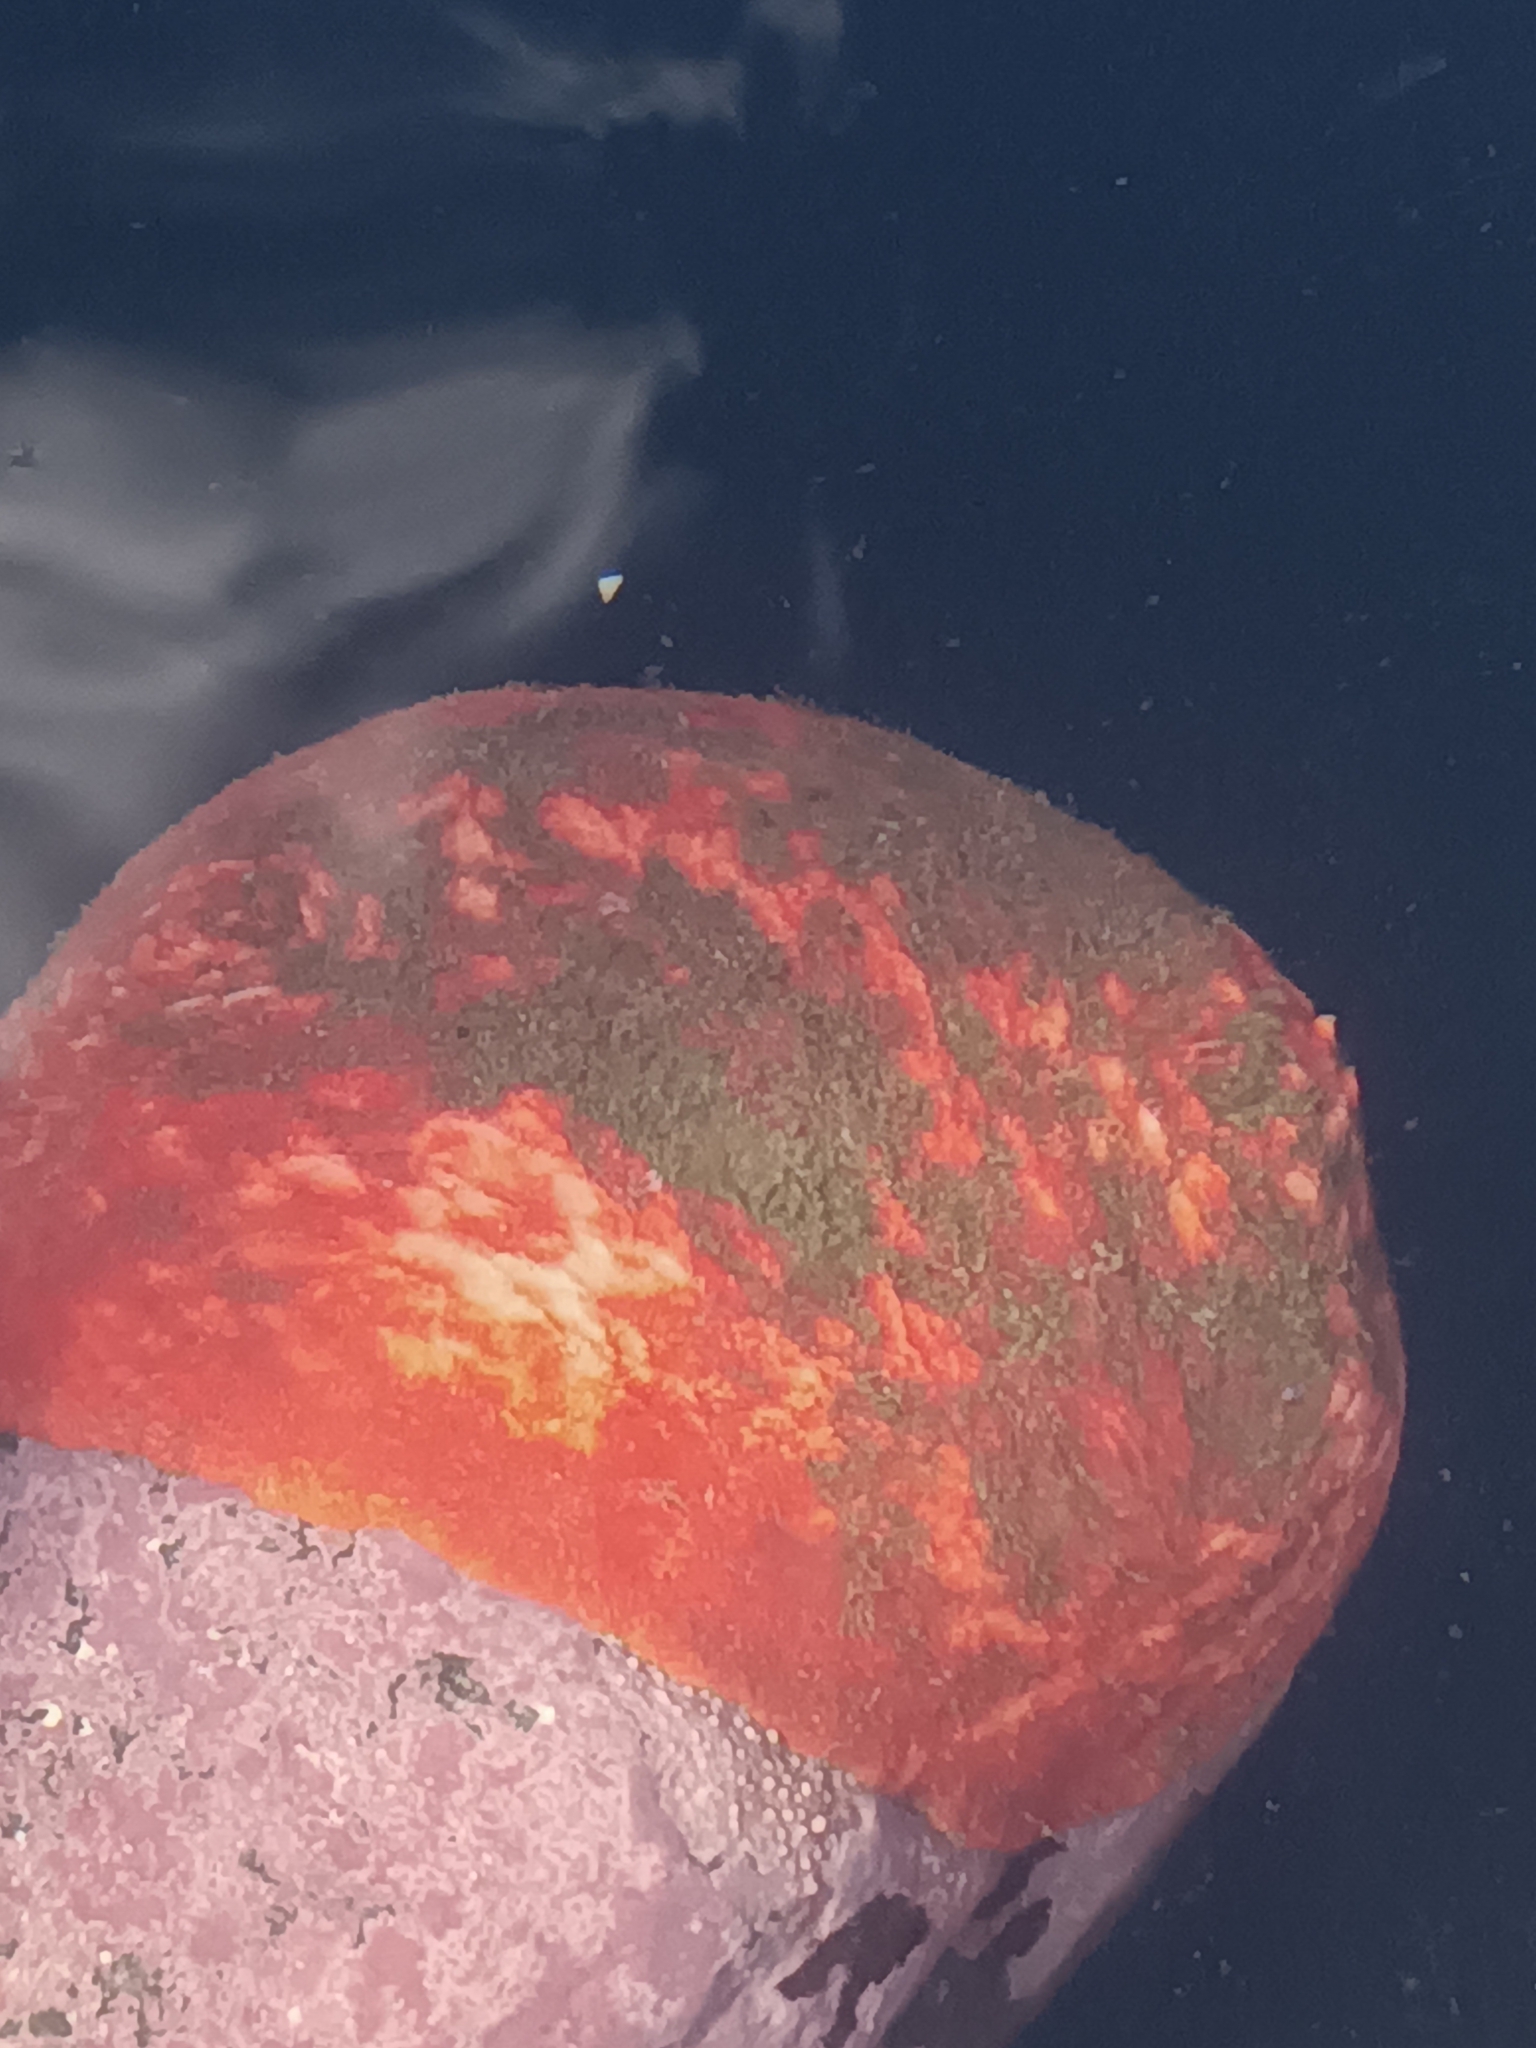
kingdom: Animalia
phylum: Echinodermata
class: Holothuroidea
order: Dendrochirotida
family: Psolidae
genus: Psolus
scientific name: Psolus fabricii
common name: Scarlet psolus
